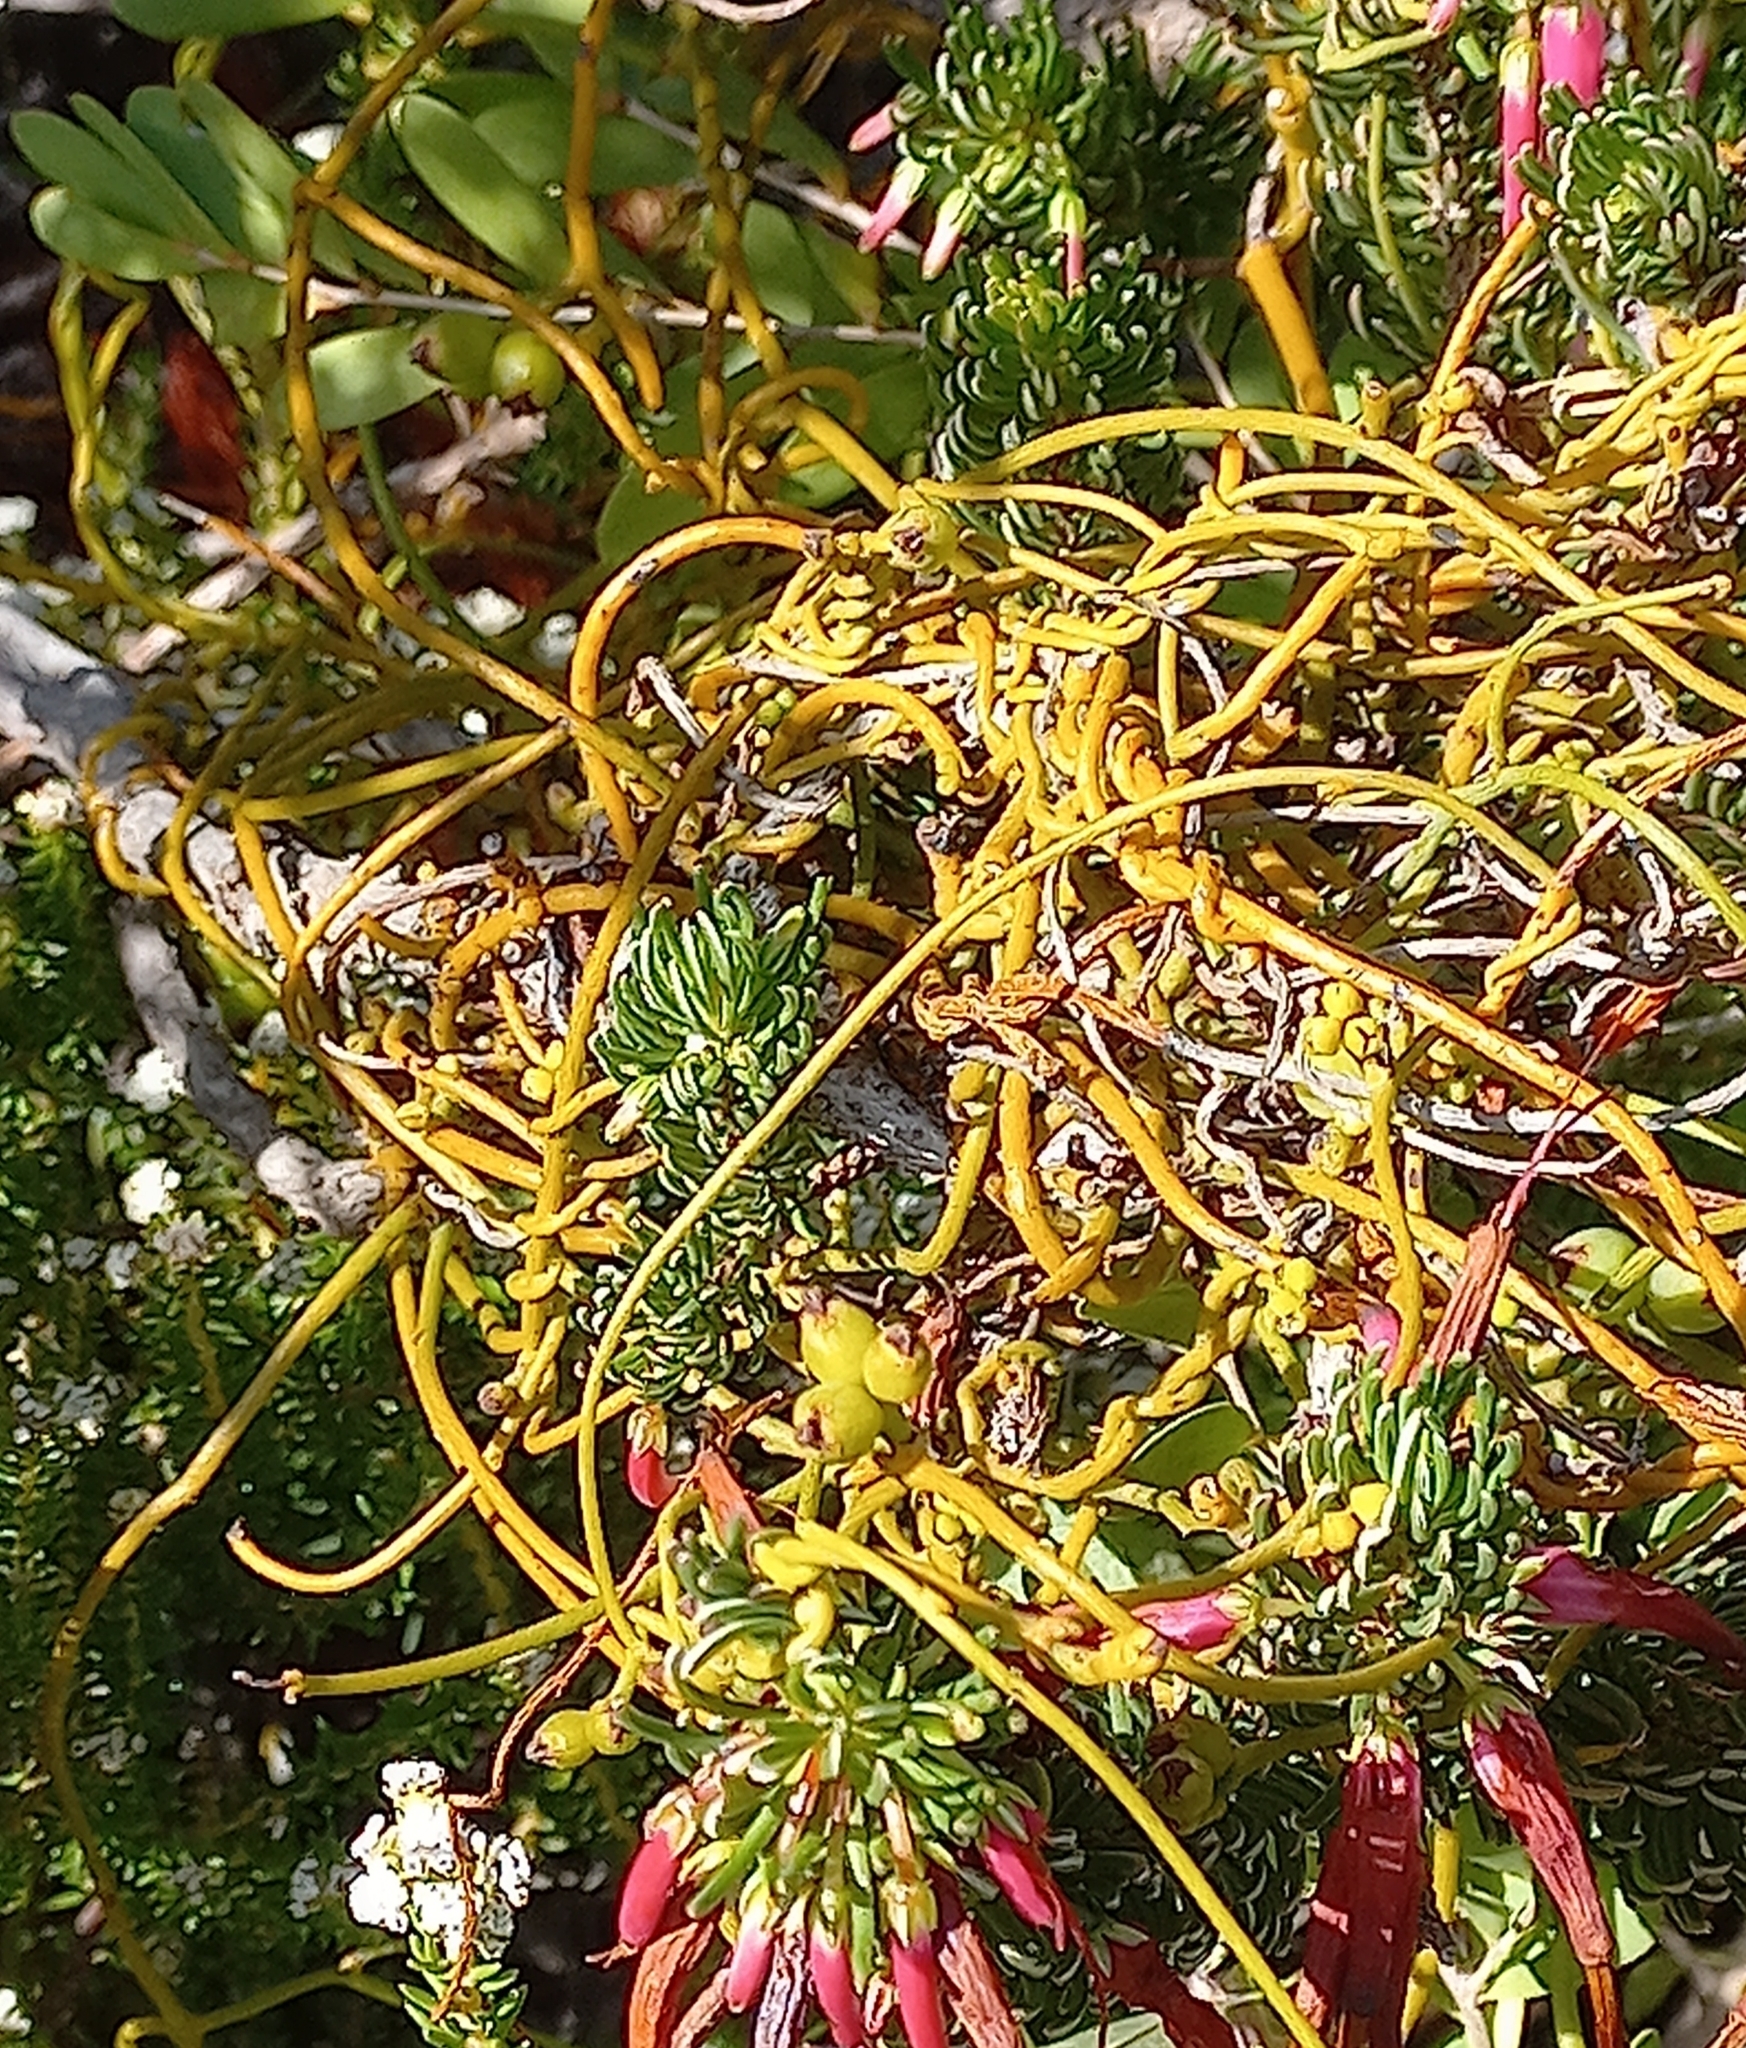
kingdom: Plantae
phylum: Tracheophyta
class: Magnoliopsida
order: Laurales
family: Lauraceae
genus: Cassytha
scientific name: Cassytha ciliolata
